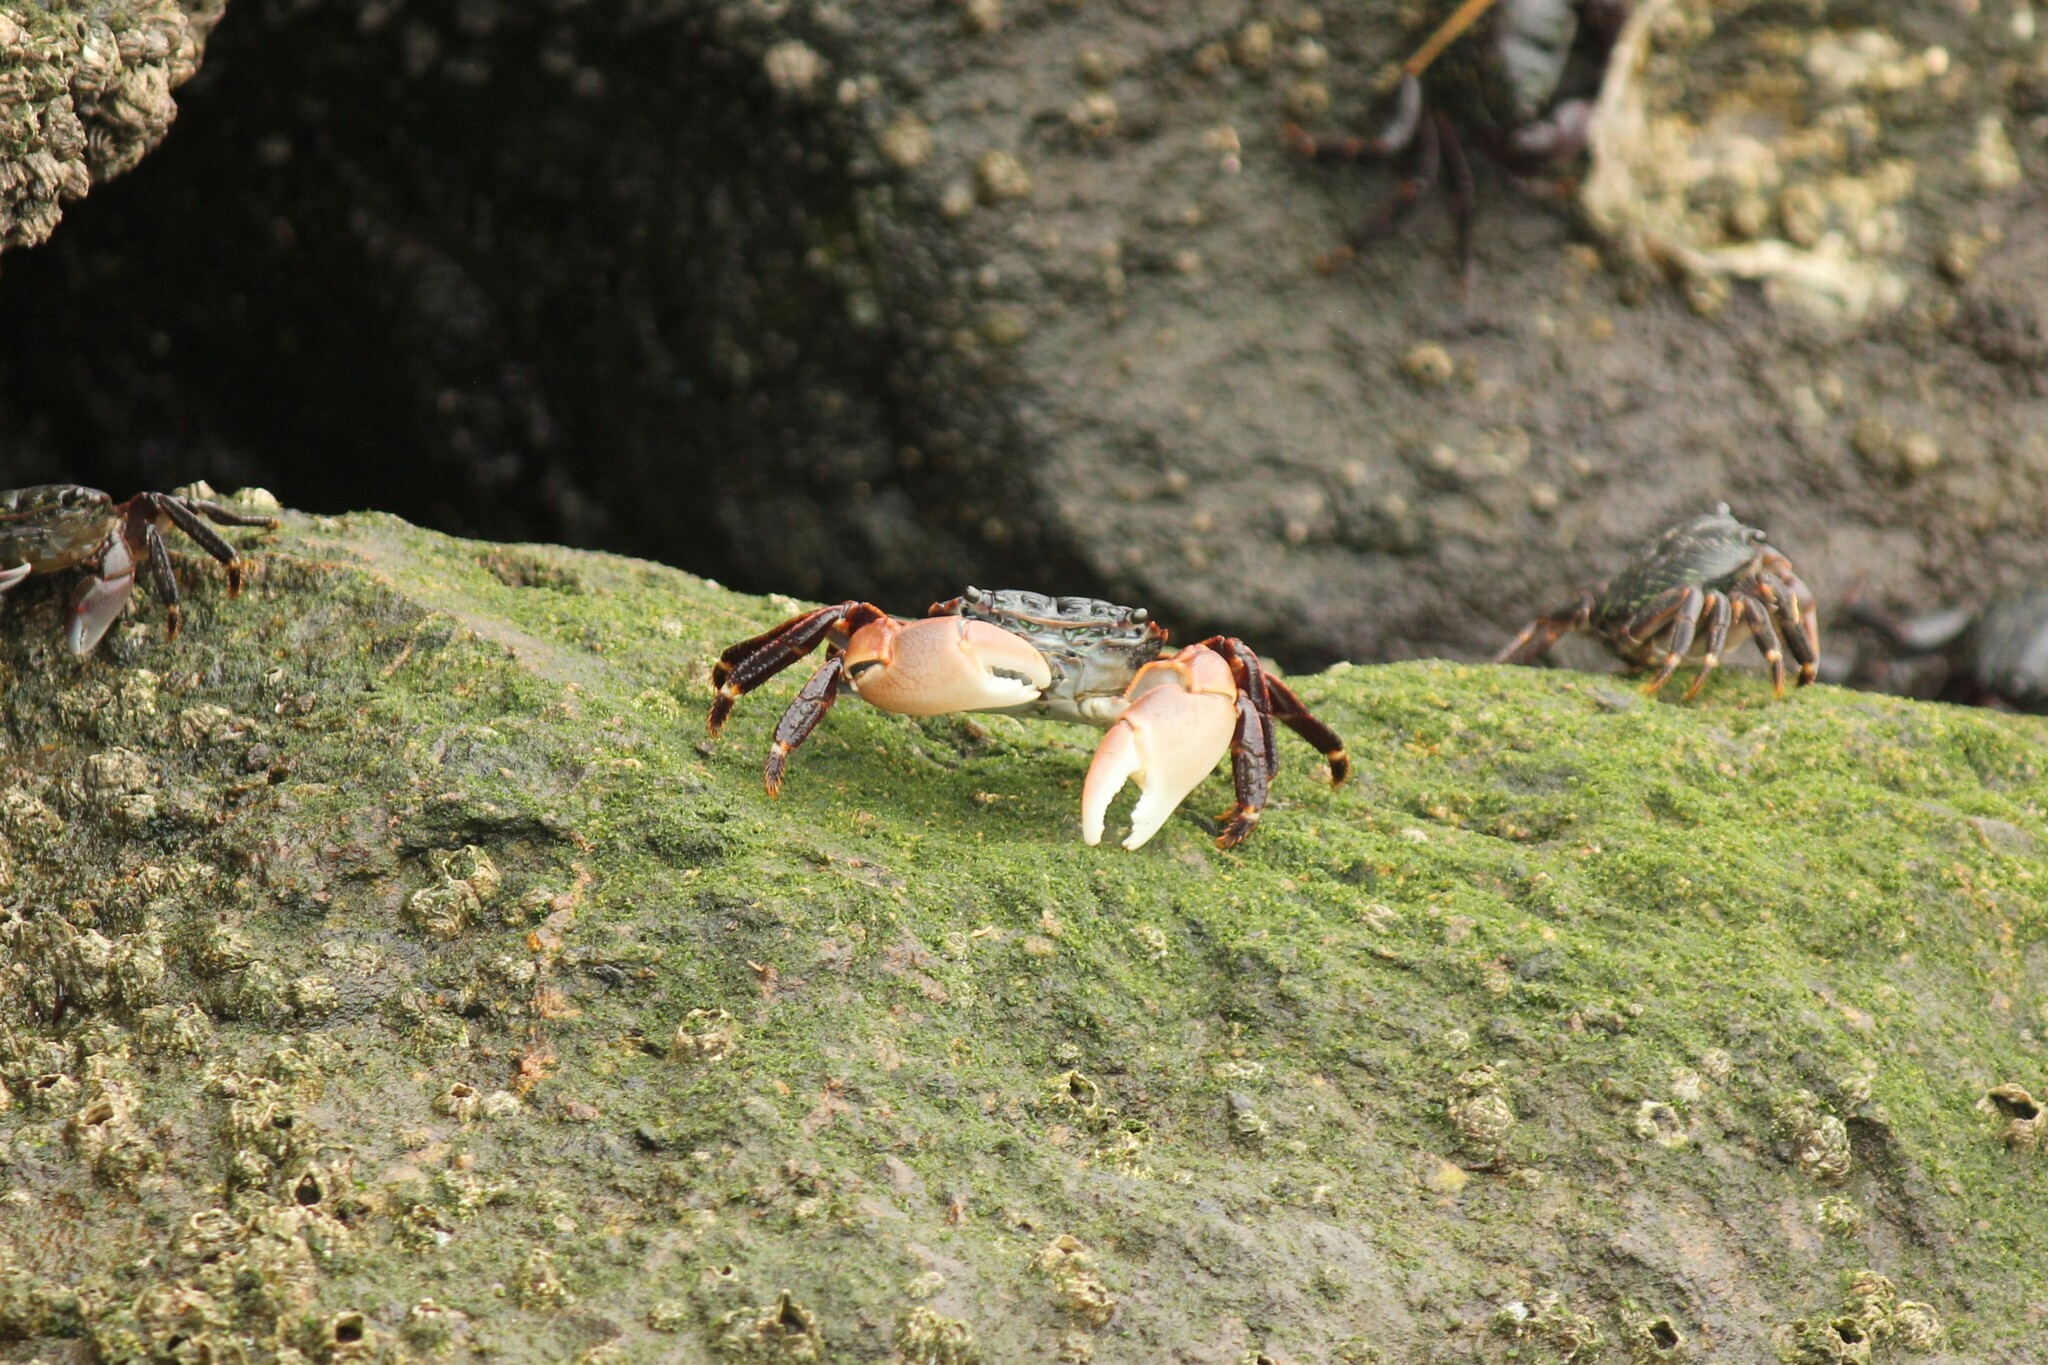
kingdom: Animalia
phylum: Arthropoda
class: Malacostraca
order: Decapoda
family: Grapsidae
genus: Pachygrapsus
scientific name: Pachygrapsus crassipes
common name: Striped shore crab
